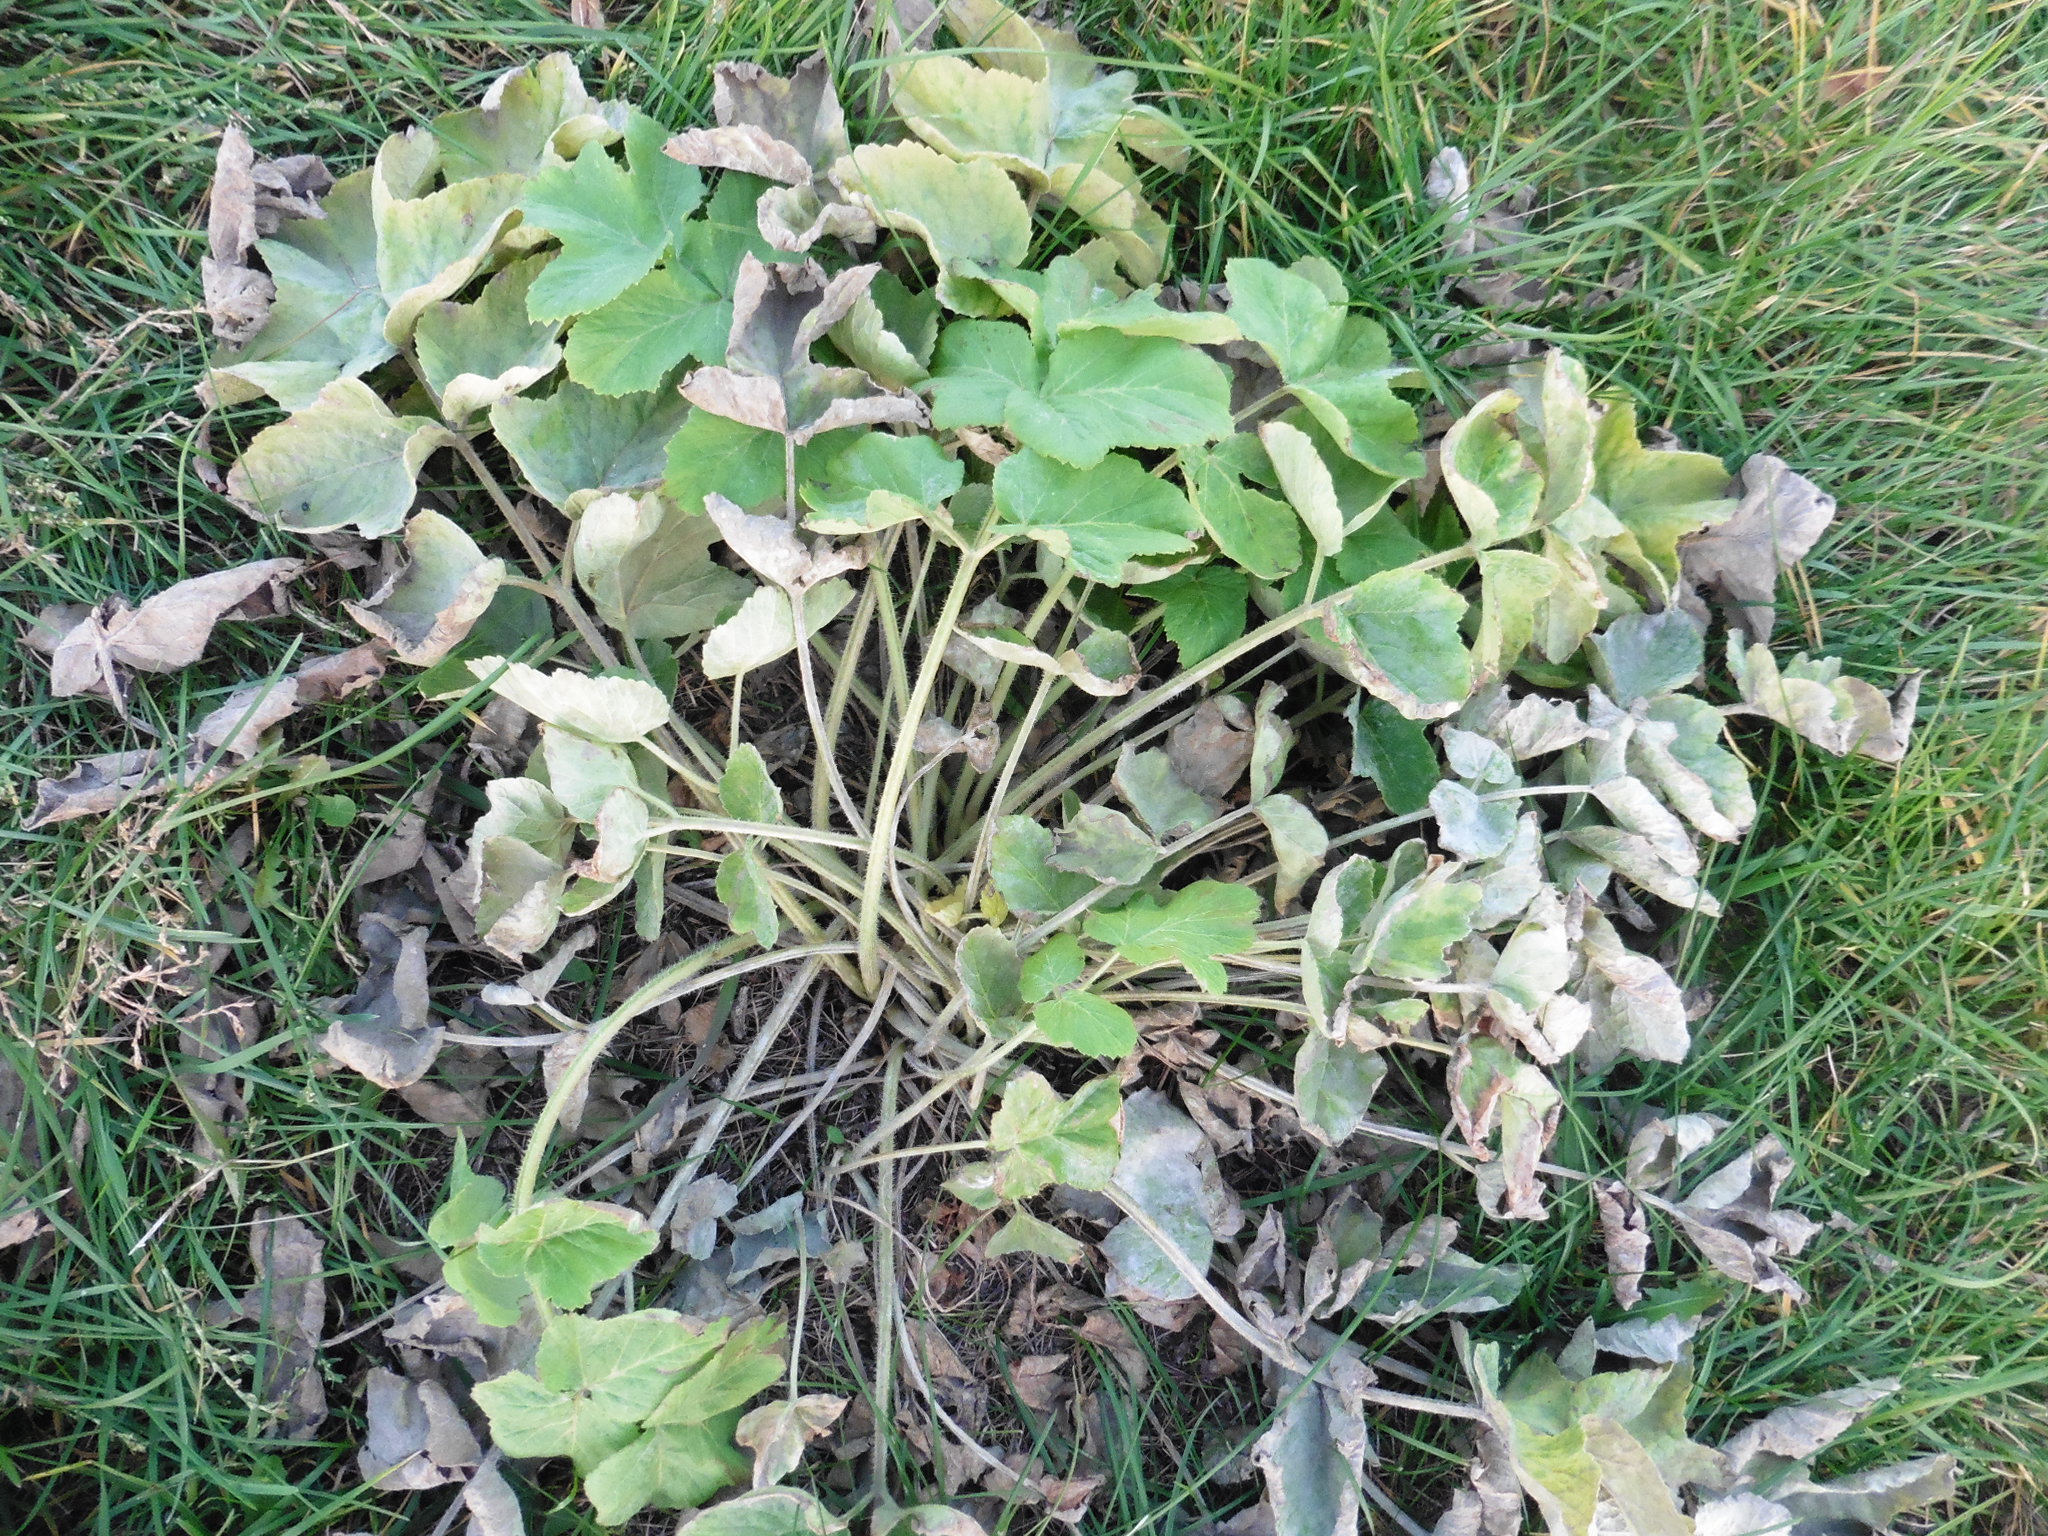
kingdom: Plantae
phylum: Tracheophyta
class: Magnoliopsida
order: Apiales
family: Apiaceae
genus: Heracleum
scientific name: Heracleum sphondylium
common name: Hogweed
